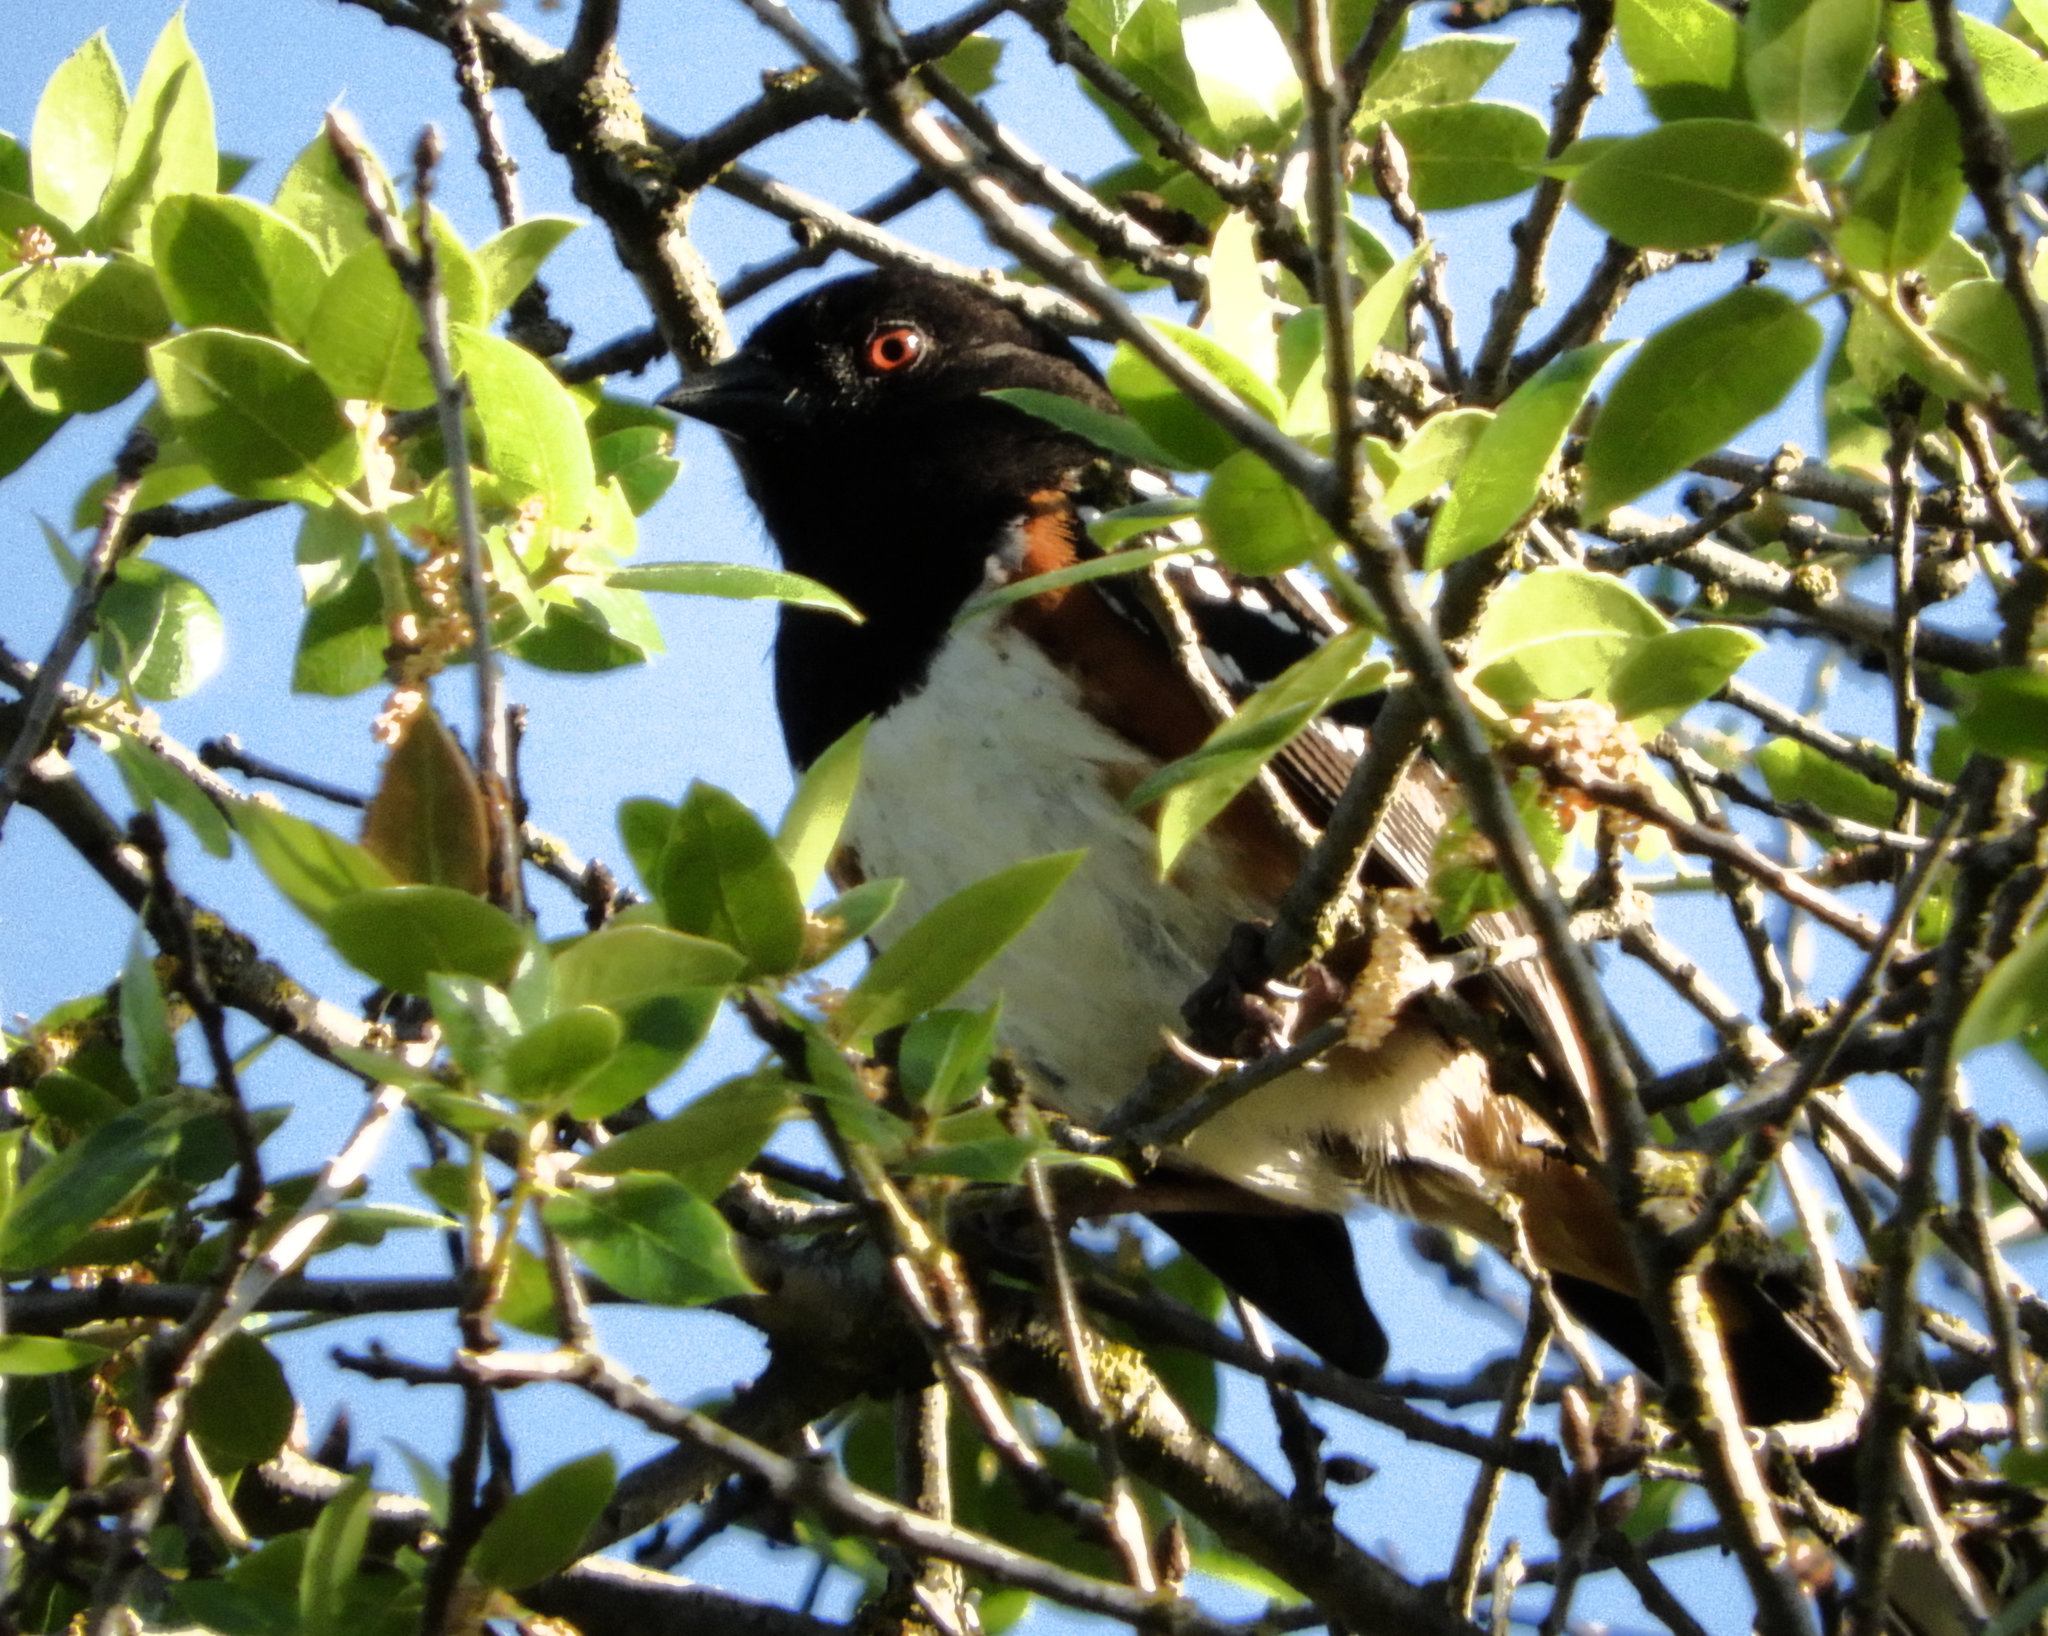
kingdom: Animalia
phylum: Chordata
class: Aves
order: Passeriformes
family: Passerellidae
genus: Pipilo
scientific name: Pipilo maculatus
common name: Spotted towhee
